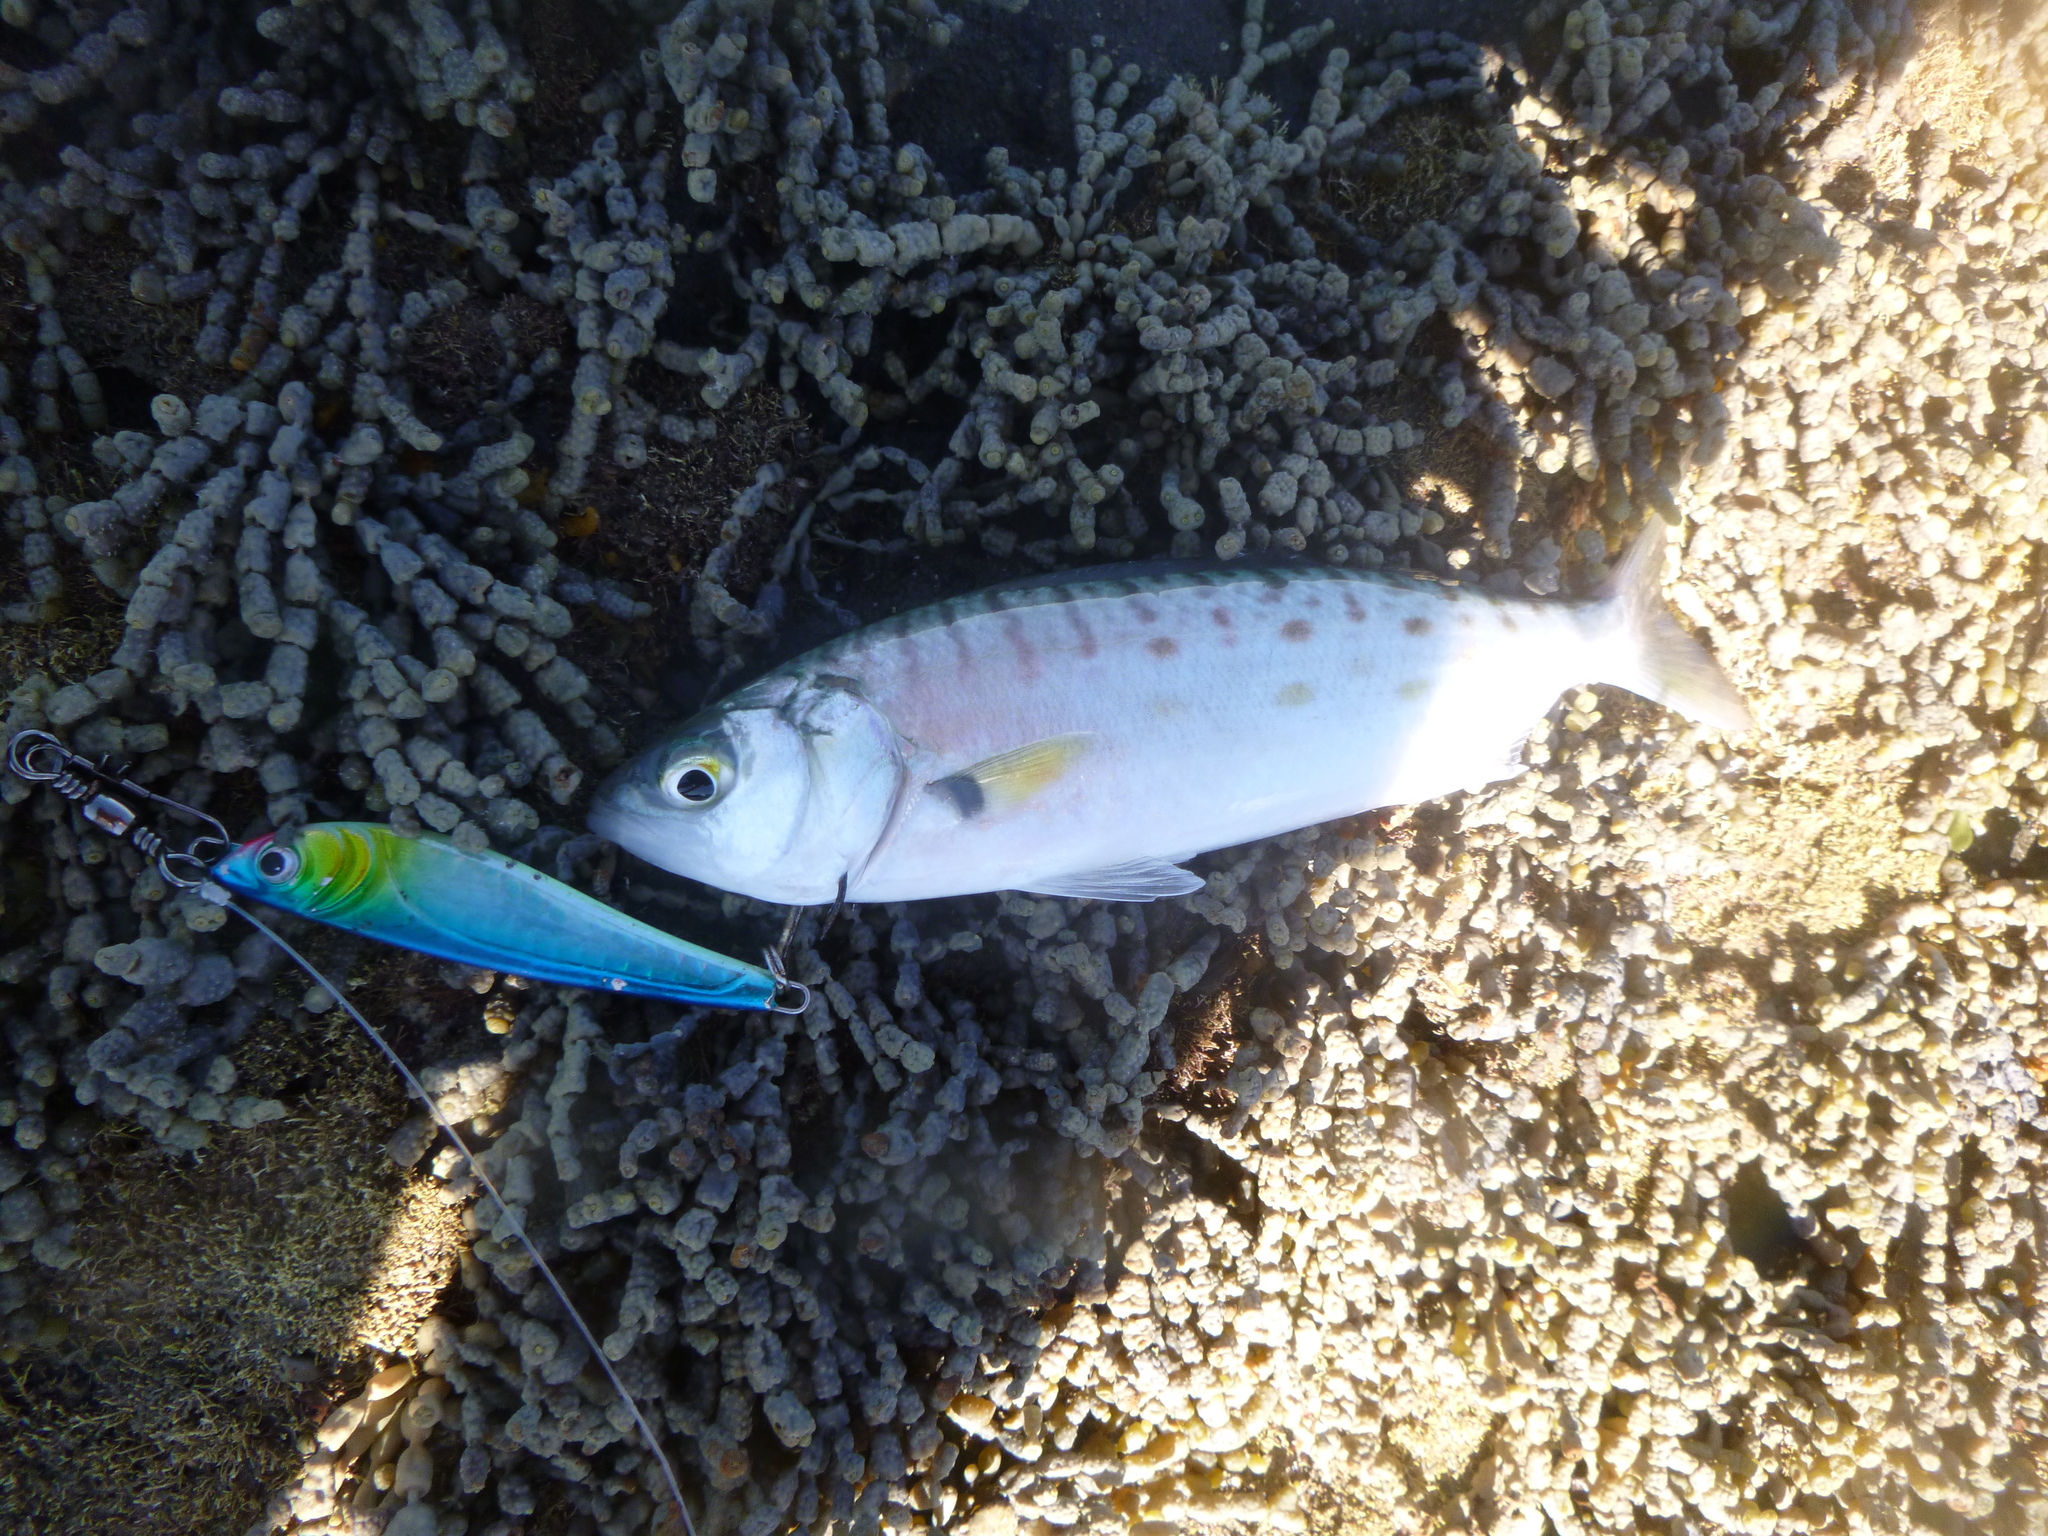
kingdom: Animalia
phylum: Chordata
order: Perciformes
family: Arripidae
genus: Arripis
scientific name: Arripis trutta
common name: Kahawai
